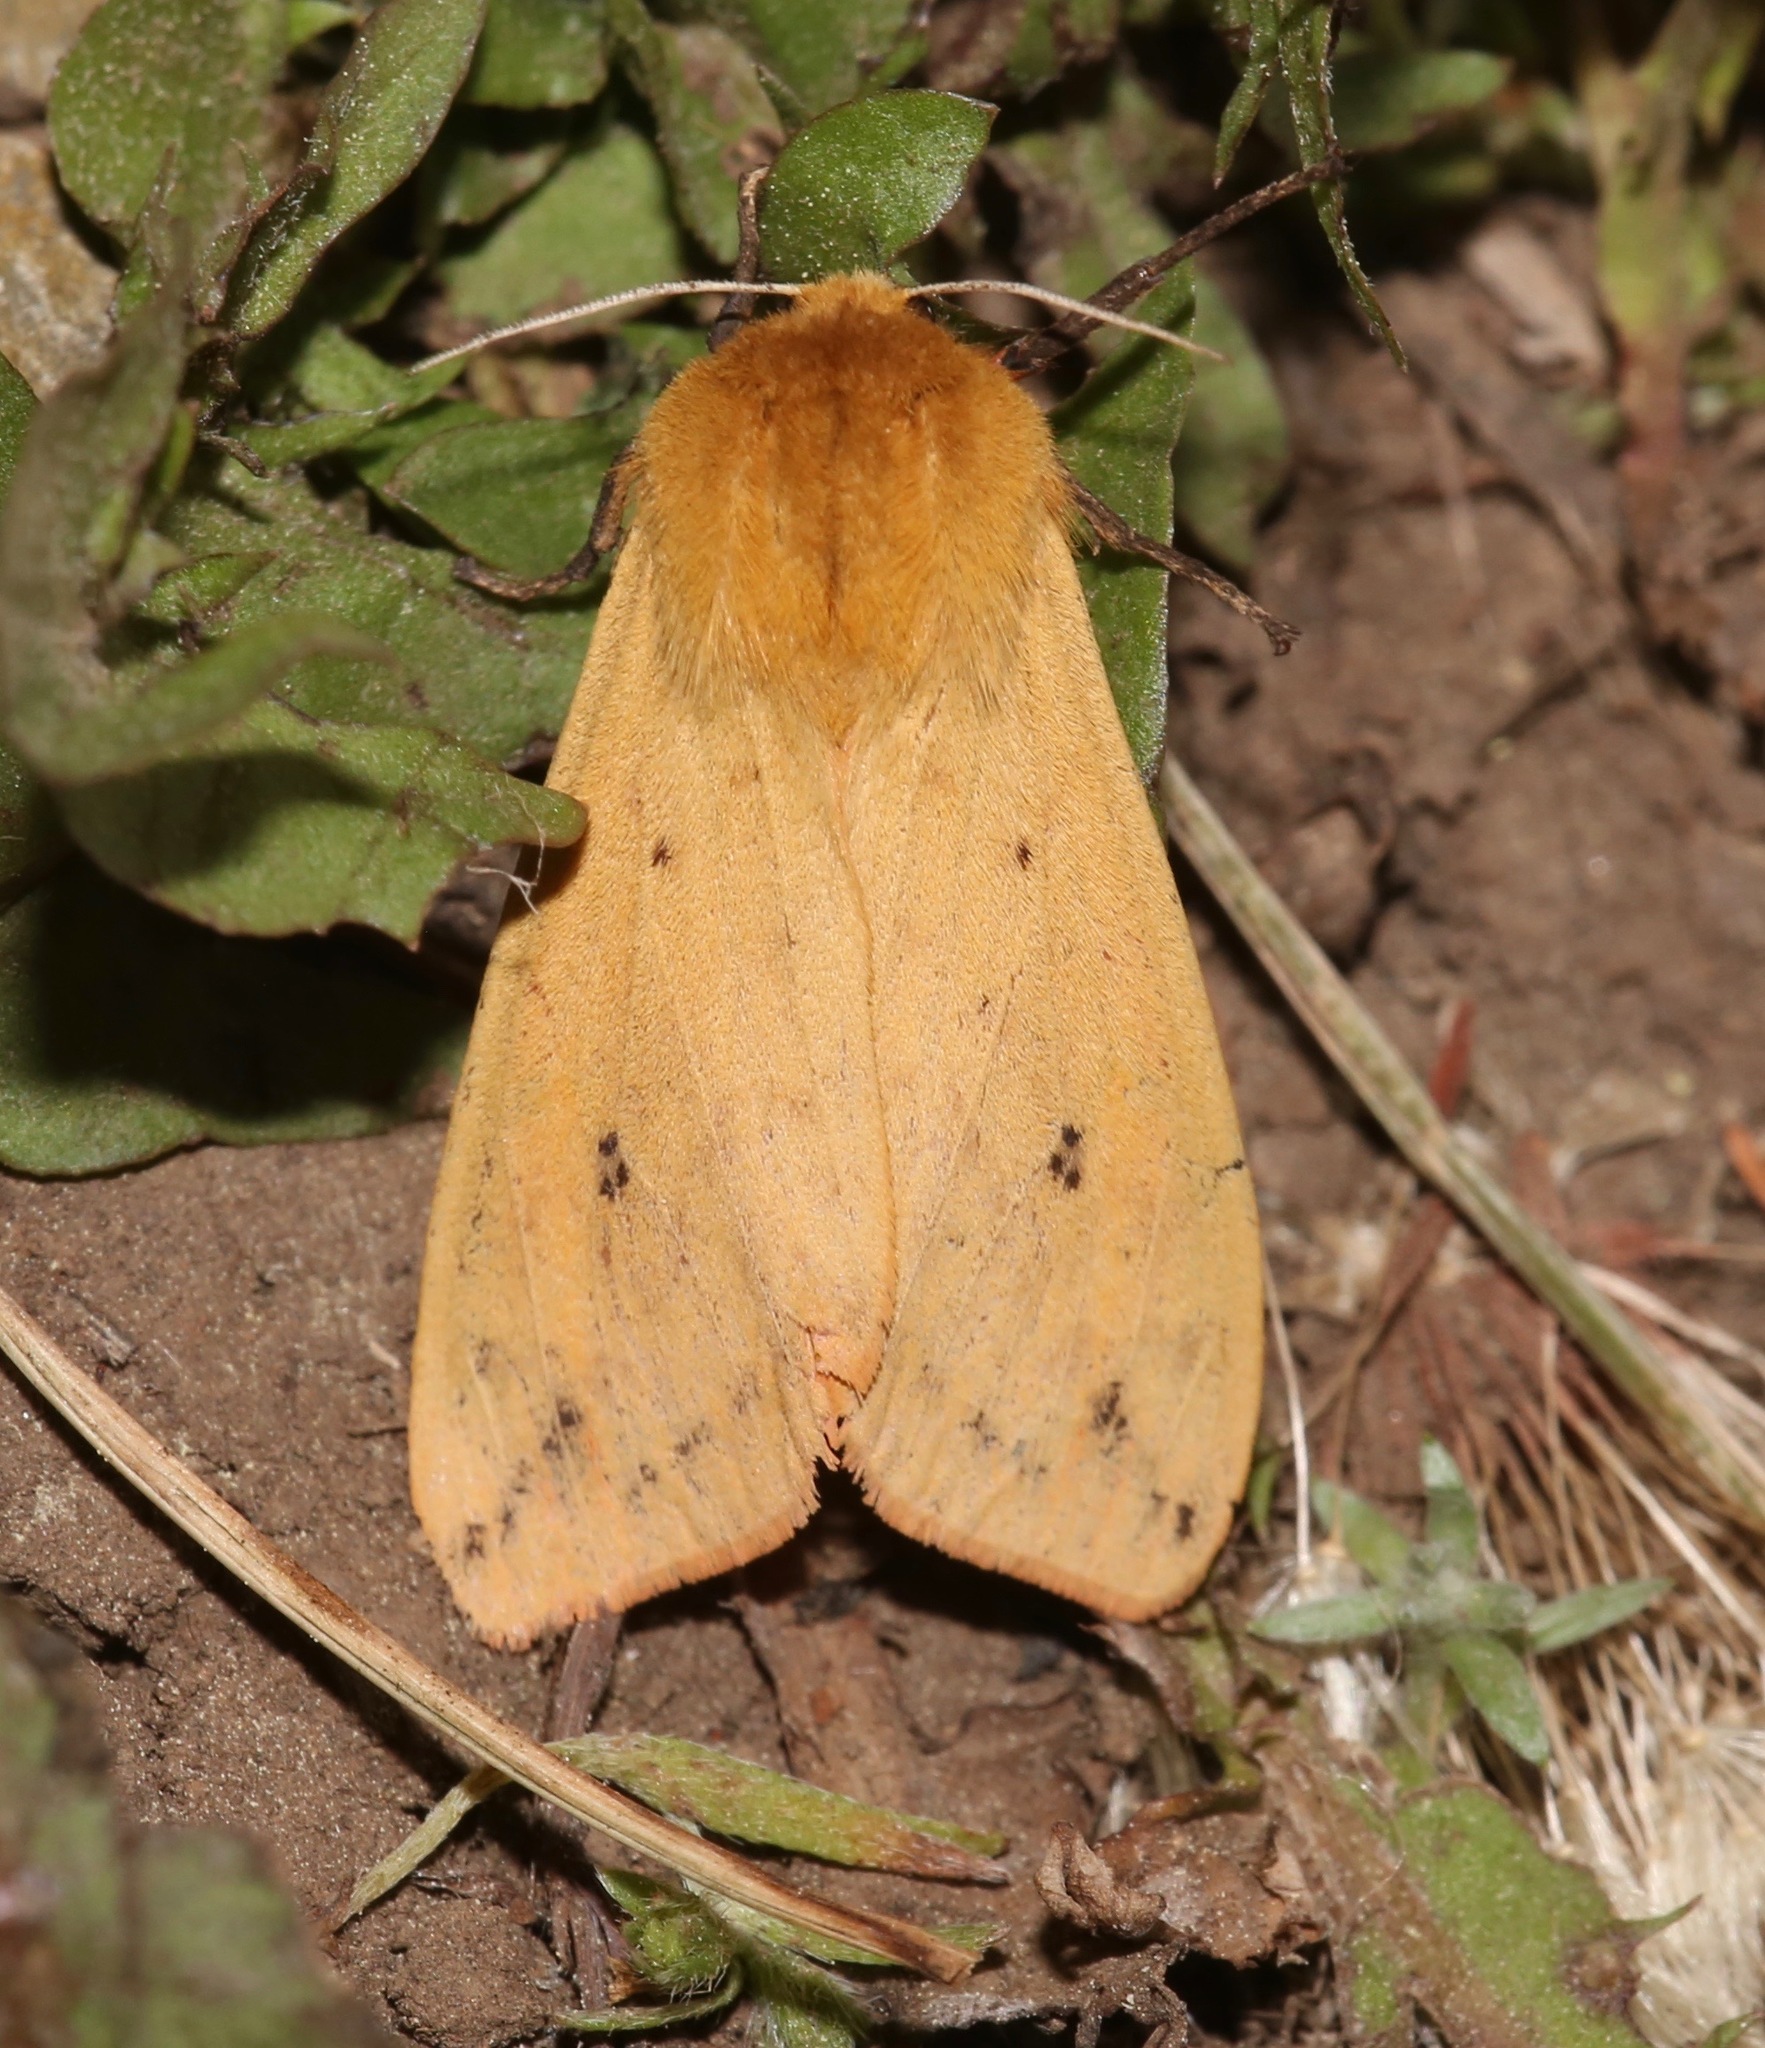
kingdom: Animalia
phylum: Arthropoda
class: Insecta
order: Lepidoptera
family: Erebidae
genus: Pyrrharctia
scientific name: Pyrrharctia isabella
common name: Isabella tiger moth
